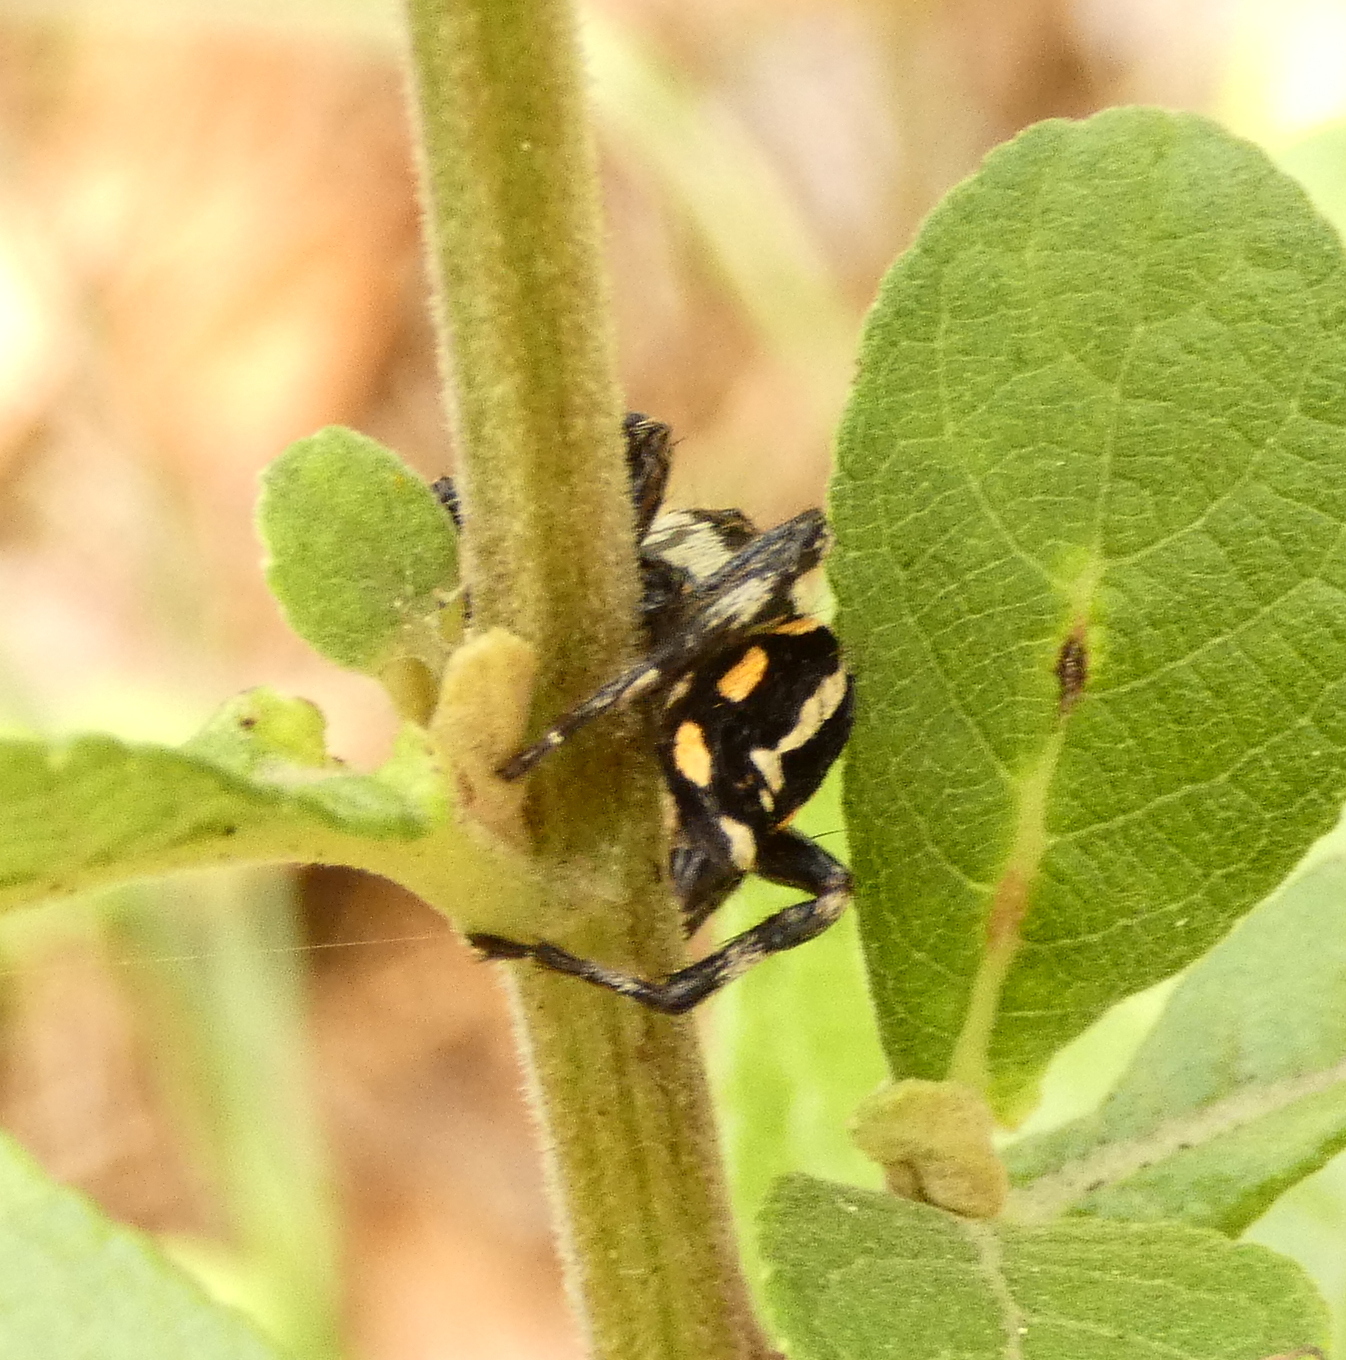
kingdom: Animalia
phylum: Arthropoda
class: Arachnida
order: Araneae
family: Salticidae
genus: Phiale
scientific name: Phiale
